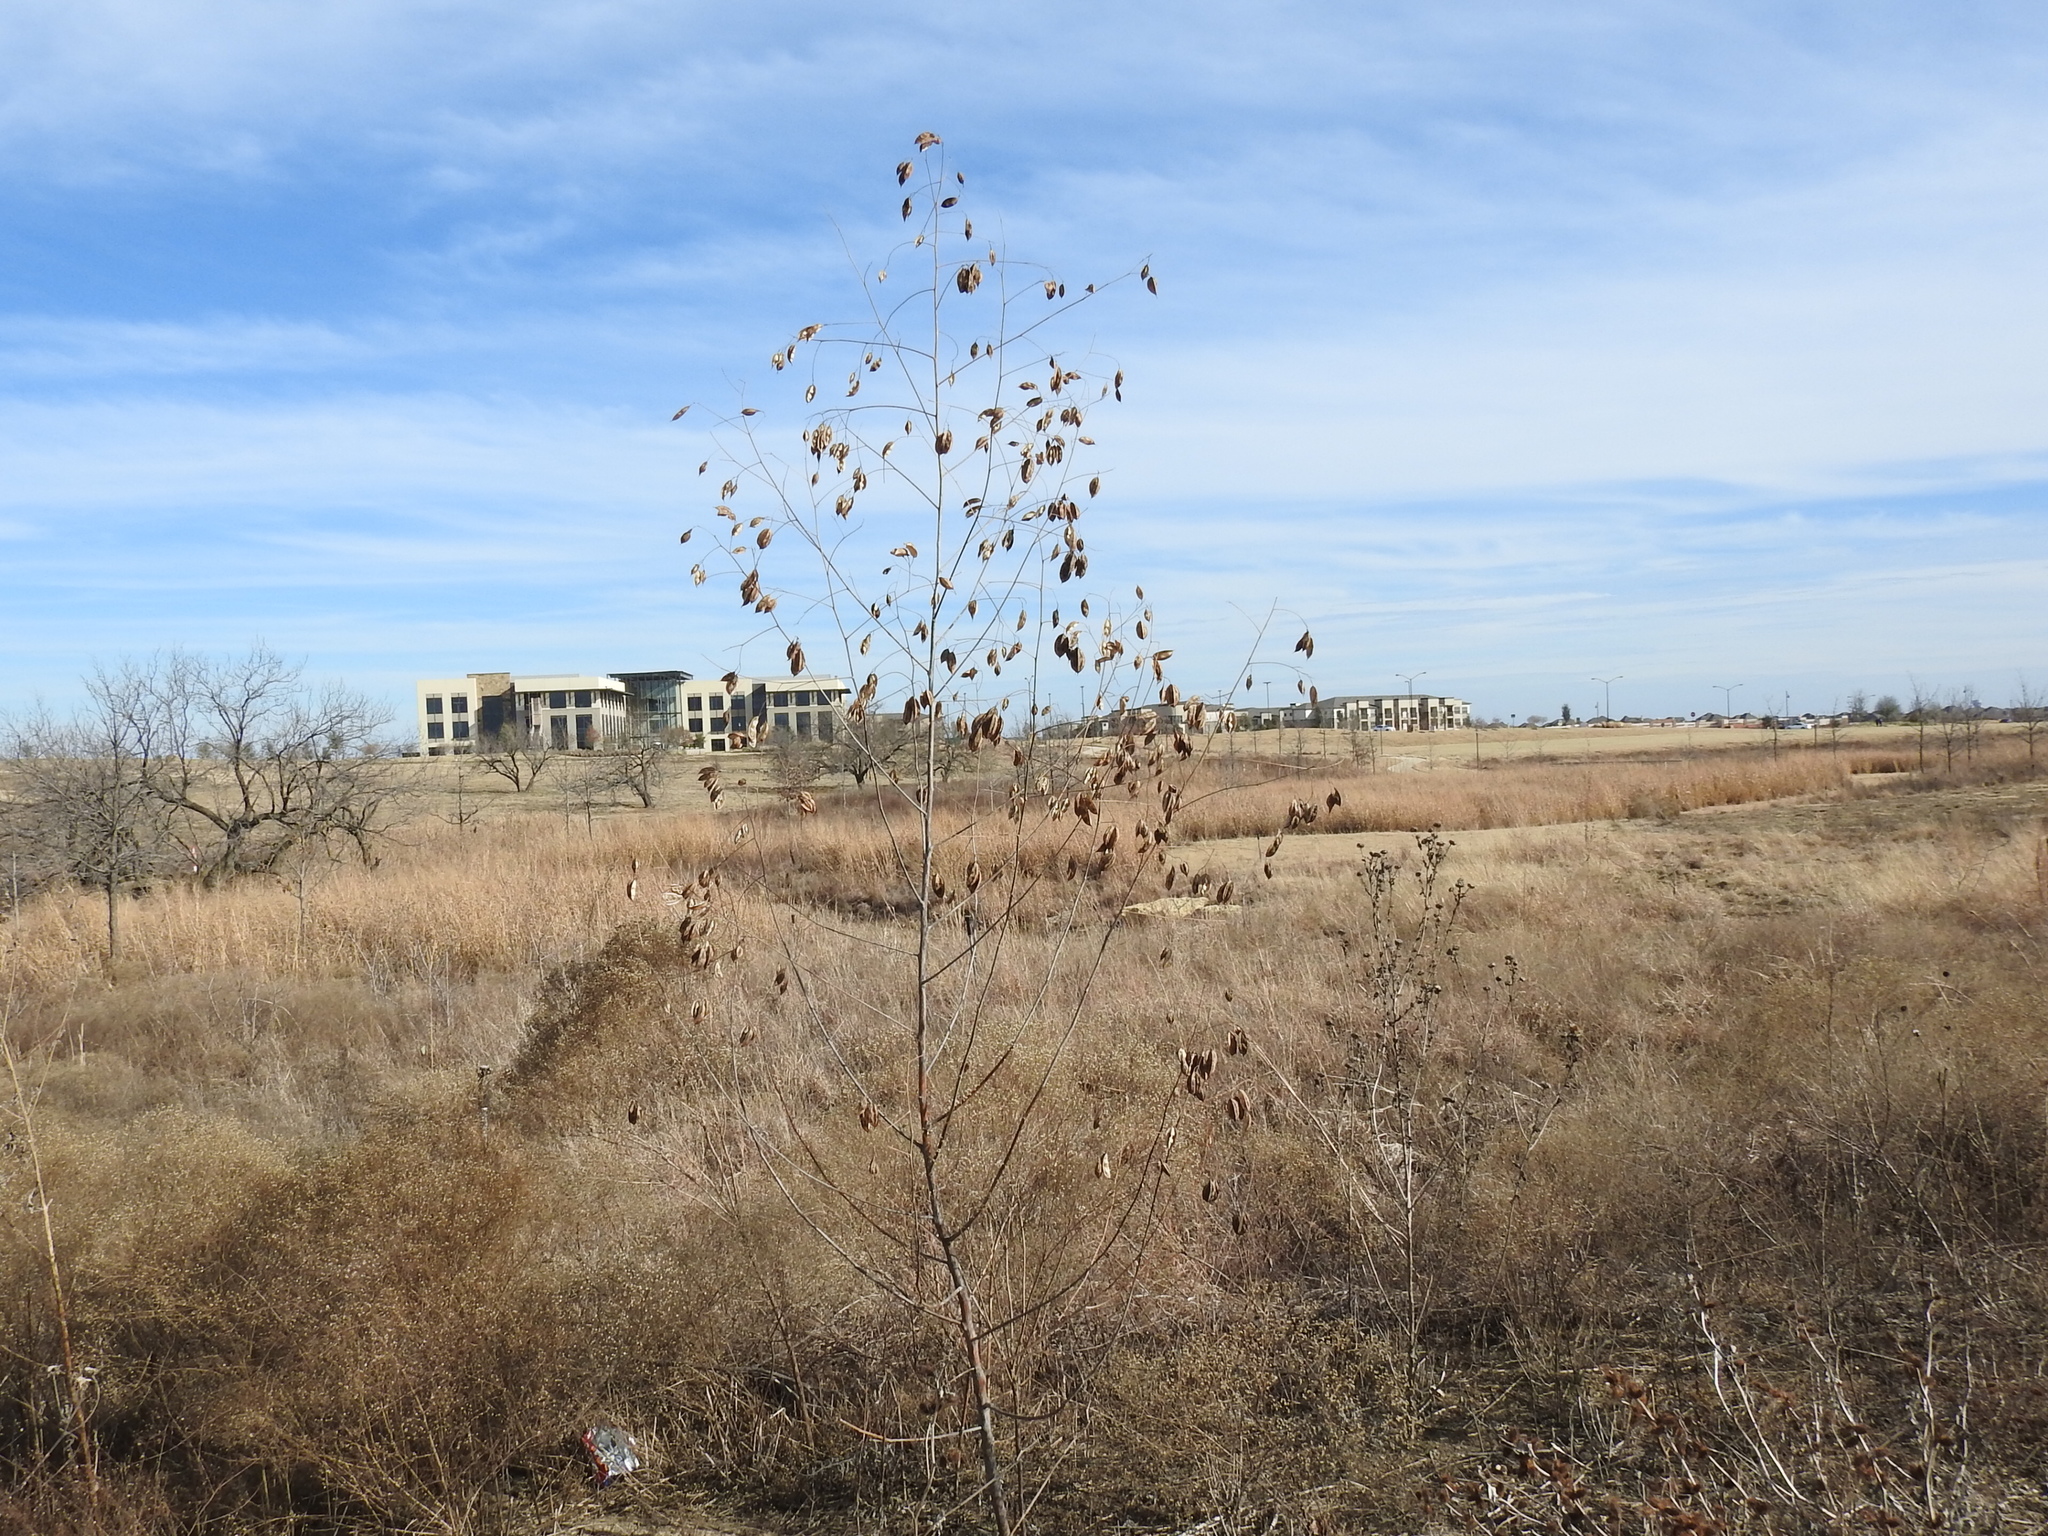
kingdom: Plantae
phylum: Tracheophyta
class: Magnoliopsida
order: Fabales
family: Fabaceae
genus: Sesbania
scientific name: Sesbania vesicaria
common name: Bagpod
